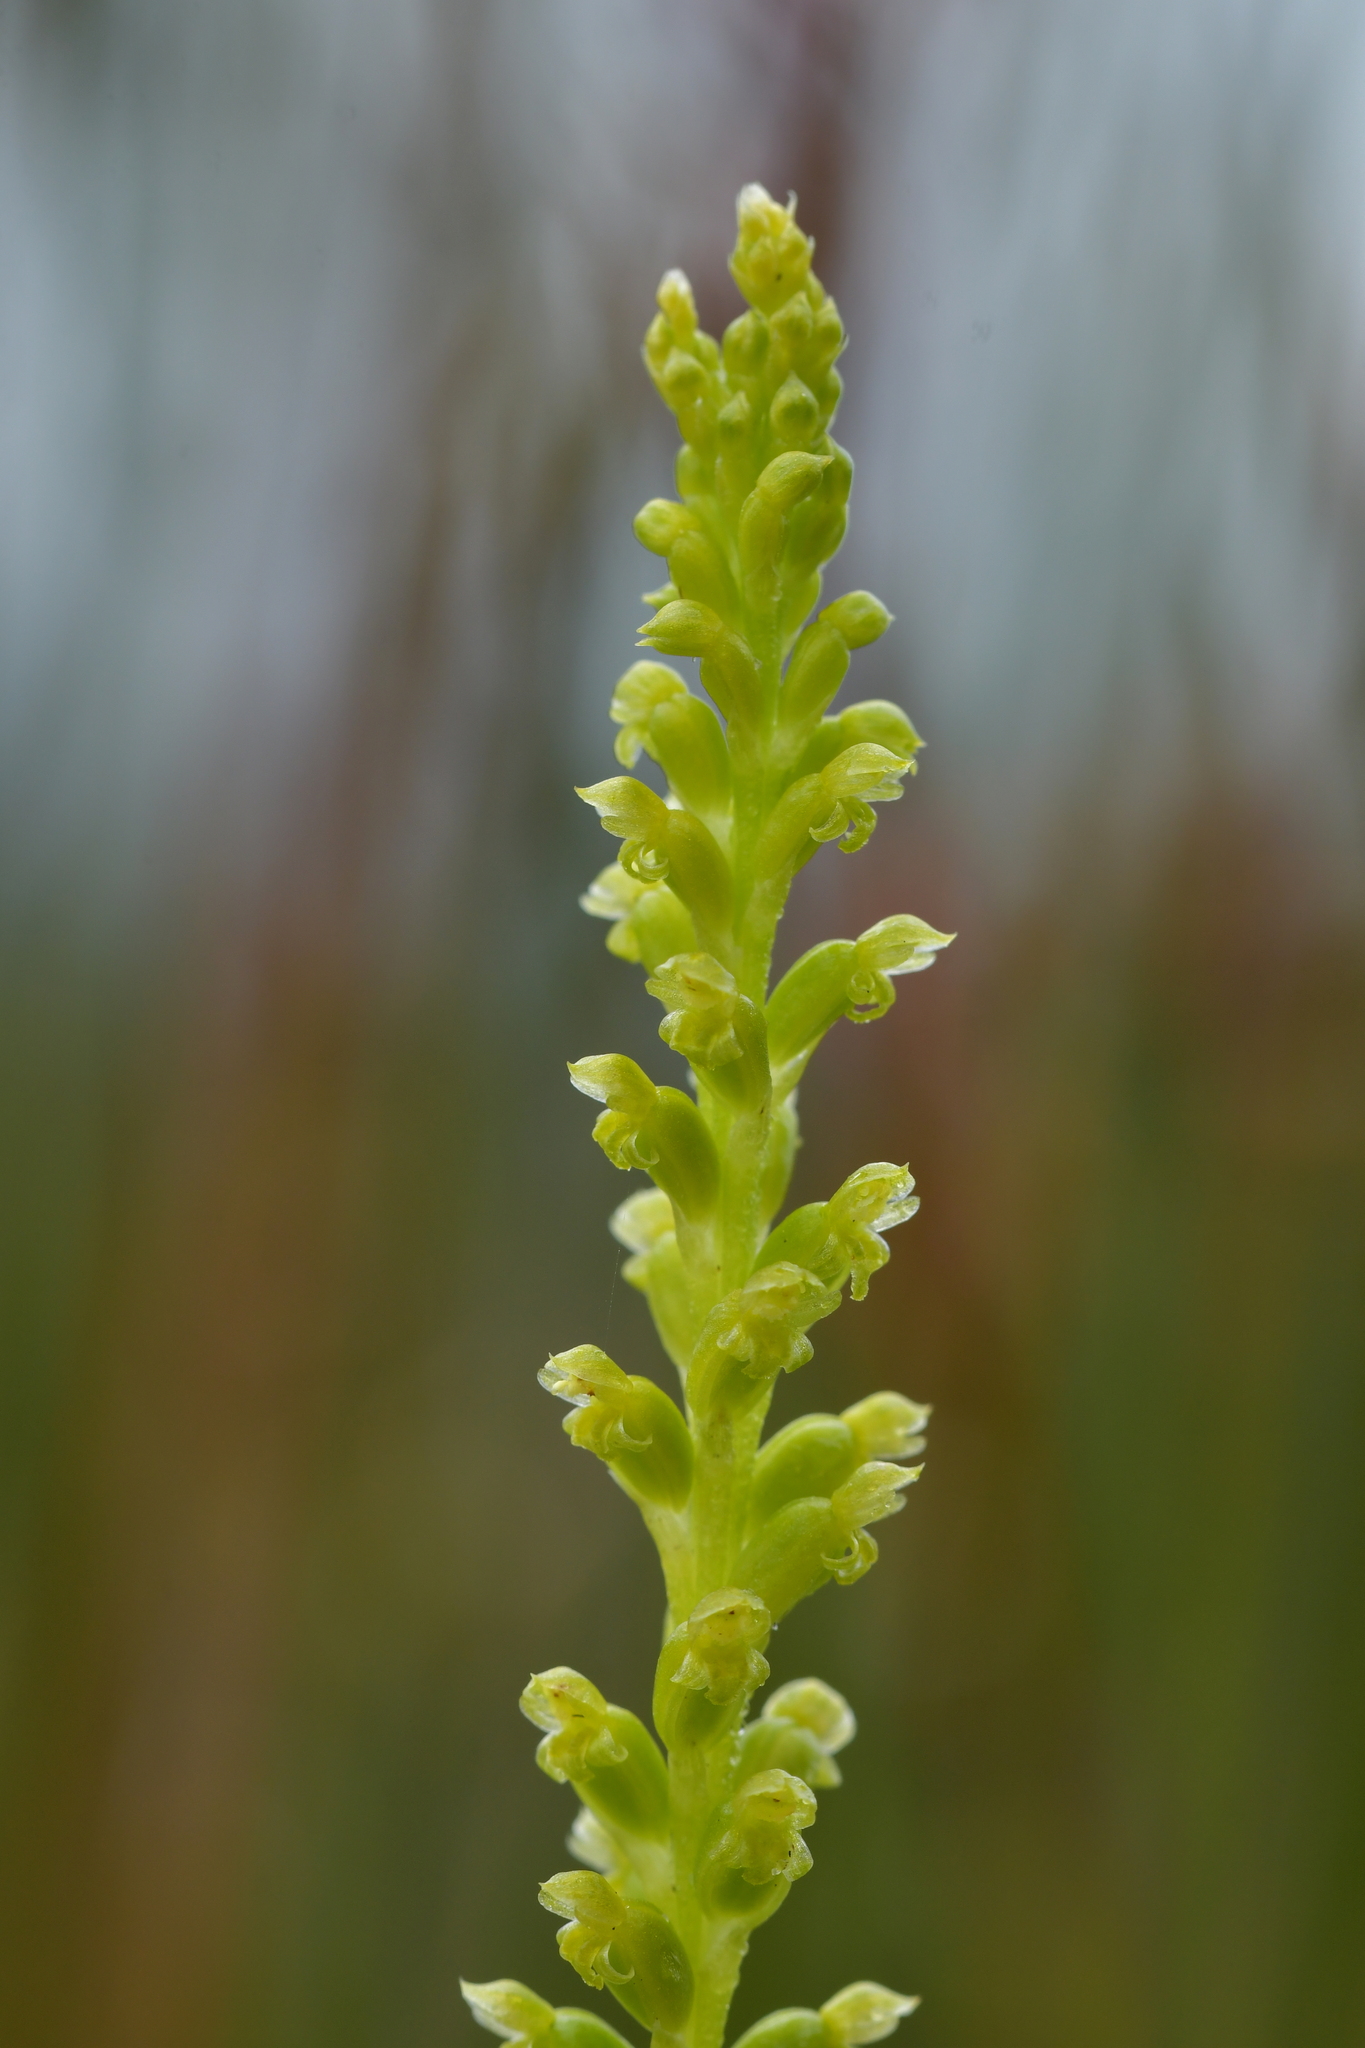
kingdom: Plantae
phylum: Tracheophyta
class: Liliopsida
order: Asparagales
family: Orchidaceae
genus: Microtis
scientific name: Microtis parviflora
